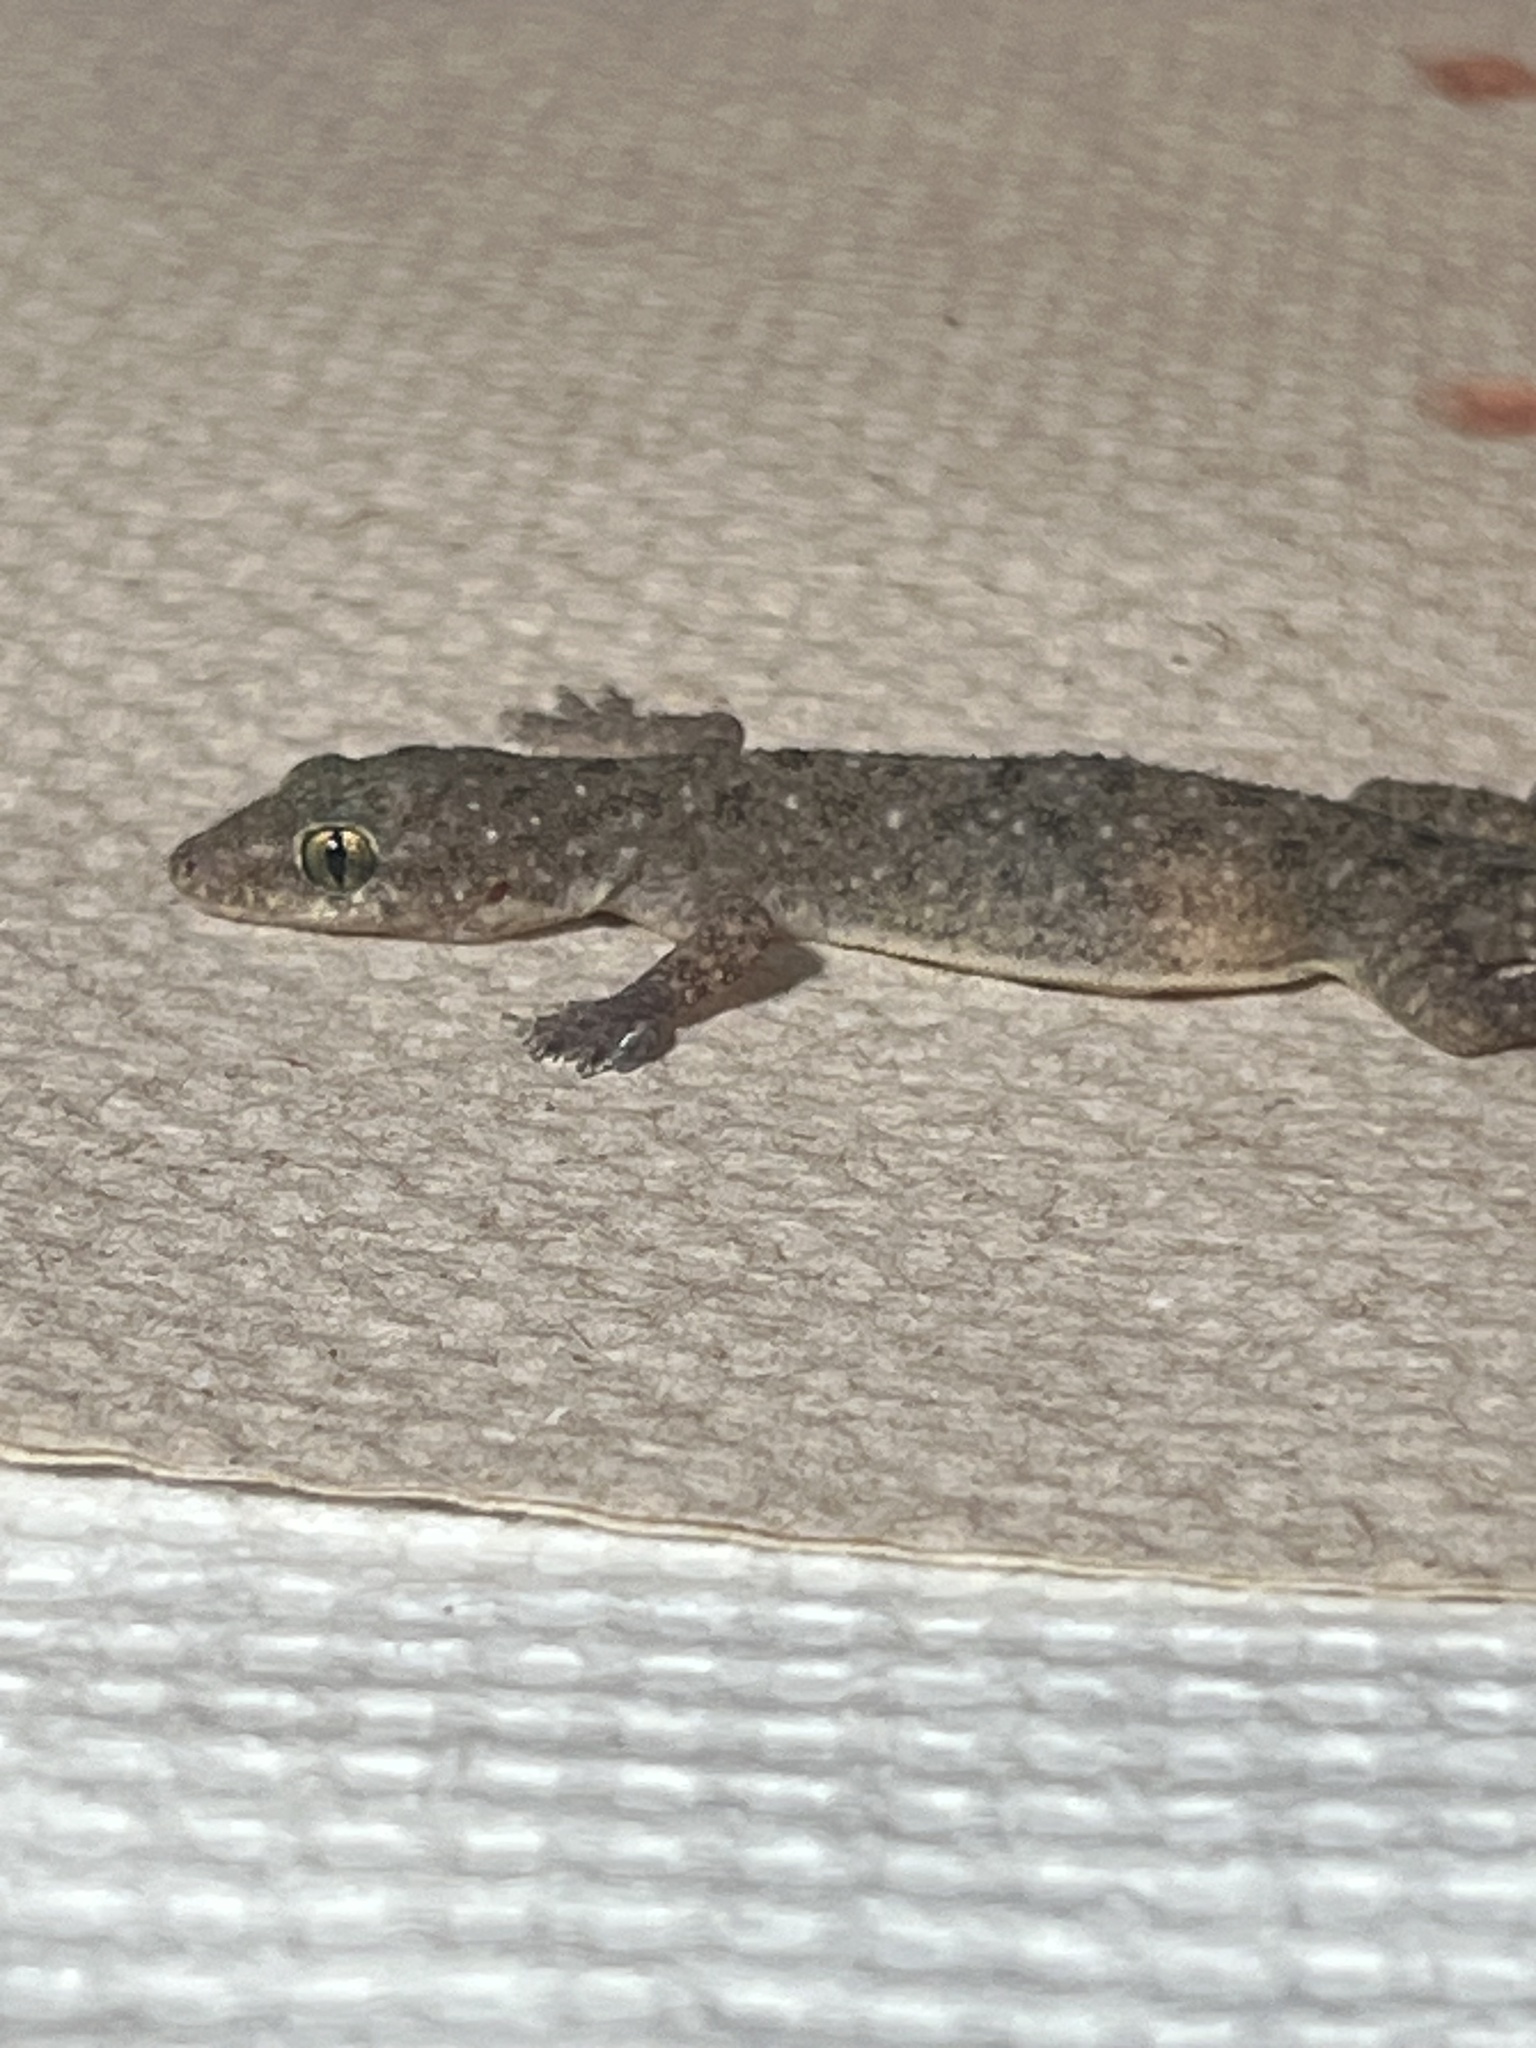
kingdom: Animalia
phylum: Chordata
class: Squamata
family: Gekkonidae
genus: Hemidactylus
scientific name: Hemidactylus parvimaculatus
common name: Spotted house gecko
